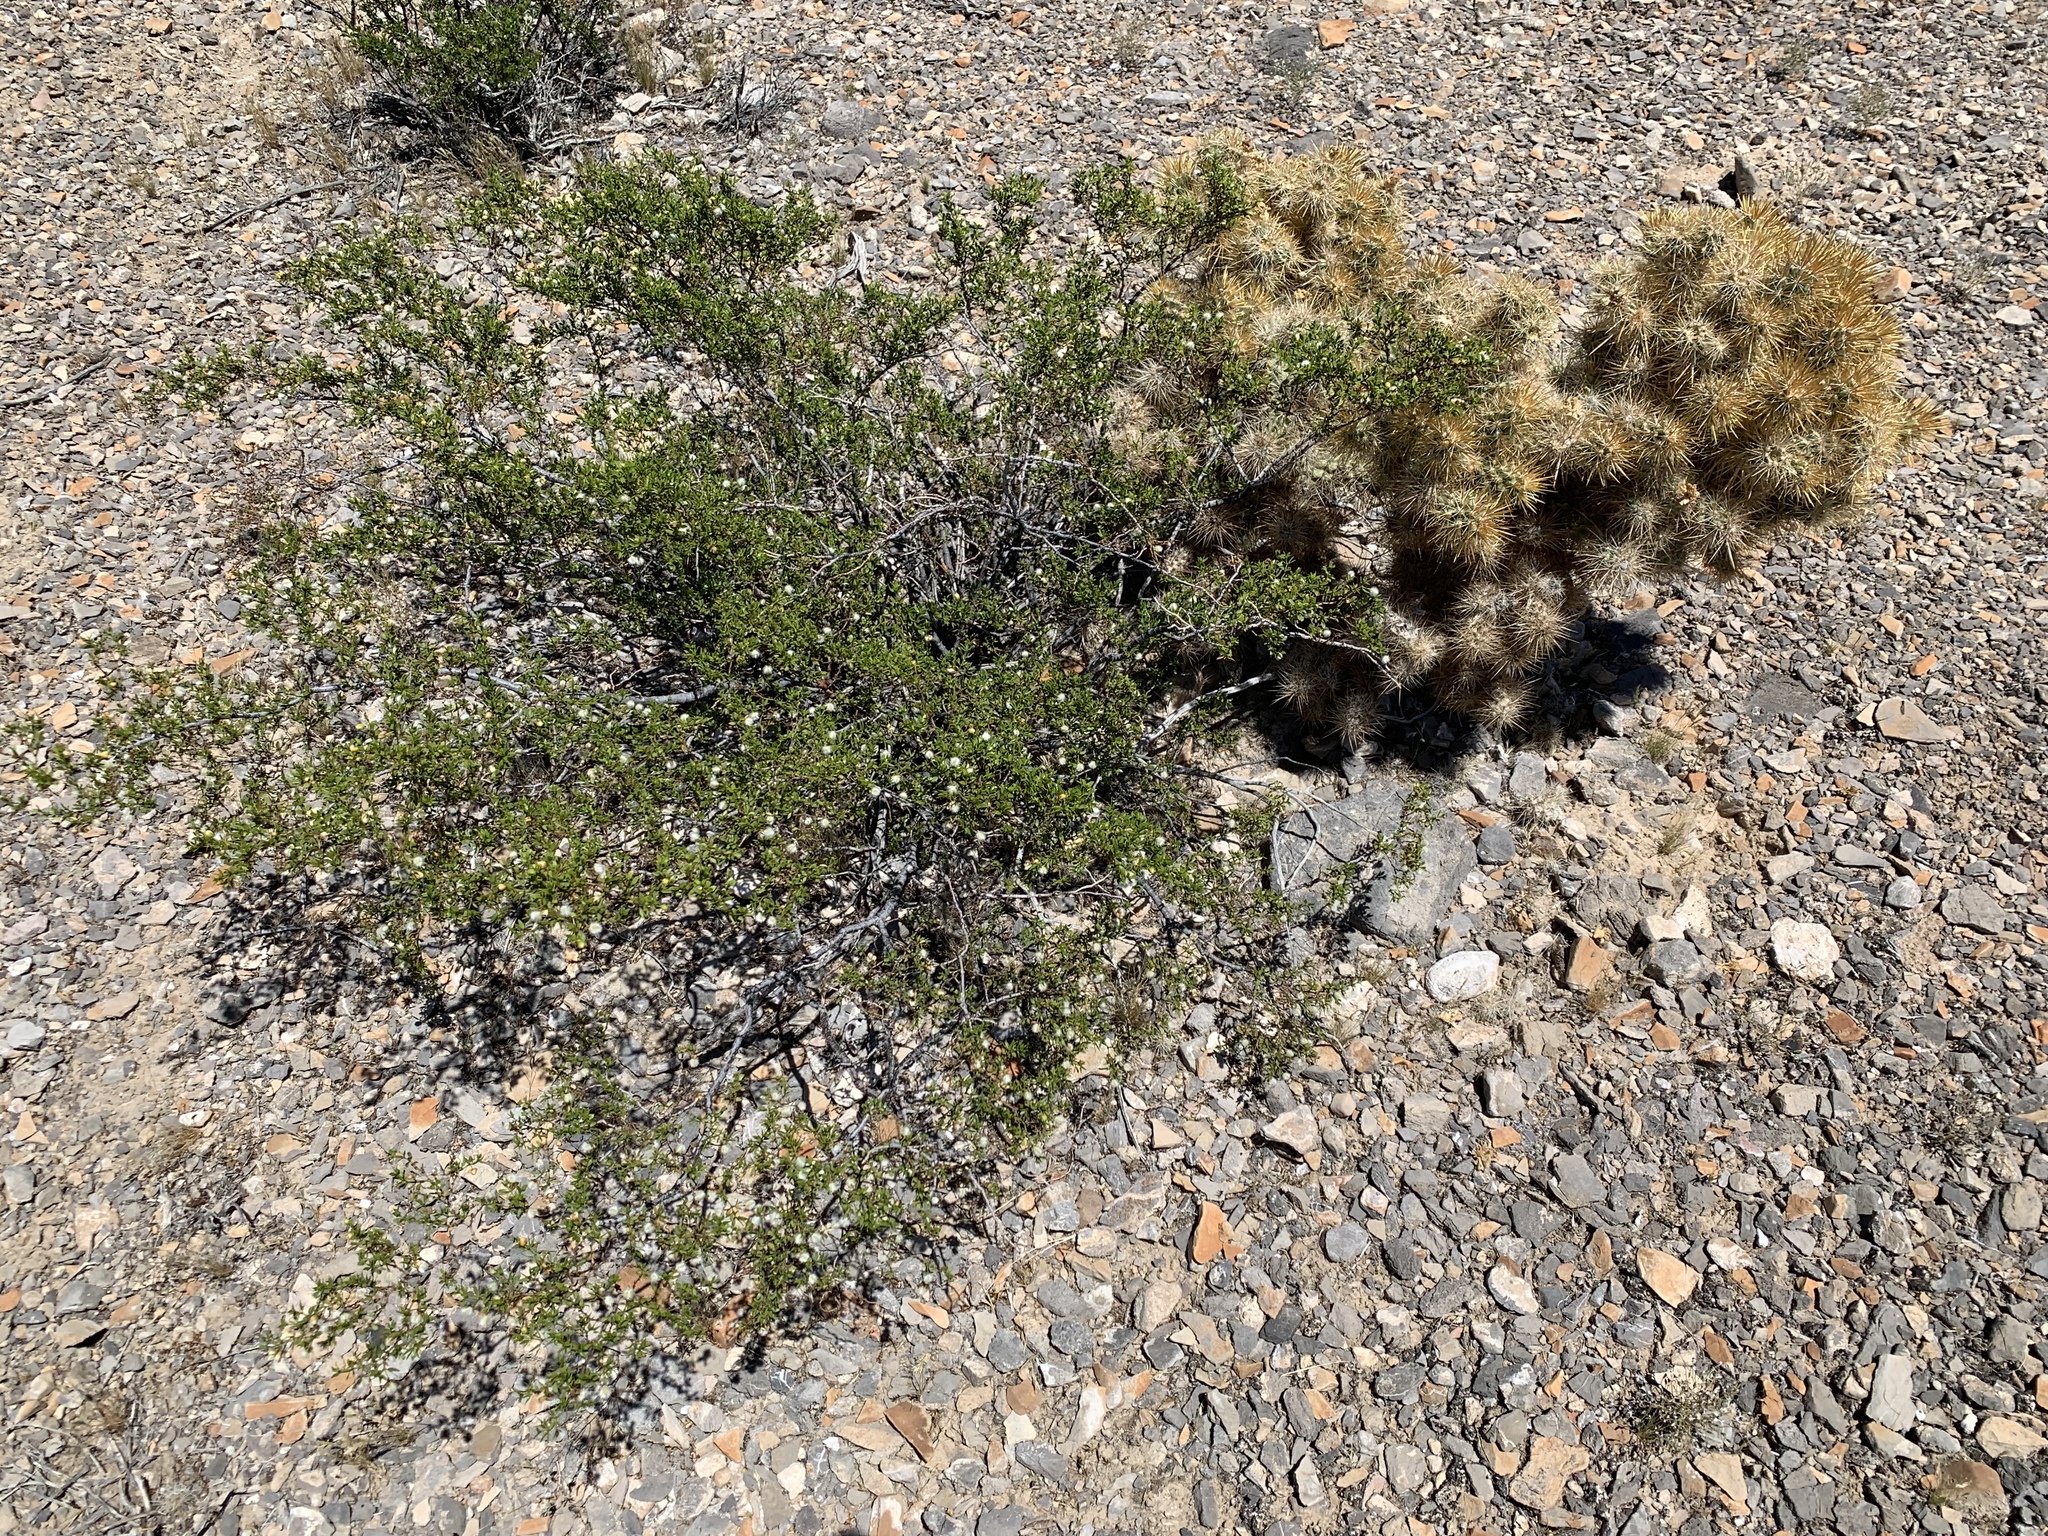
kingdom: Plantae
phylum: Tracheophyta
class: Magnoliopsida
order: Zygophyllales
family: Zygophyllaceae
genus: Larrea
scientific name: Larrea tridentata
